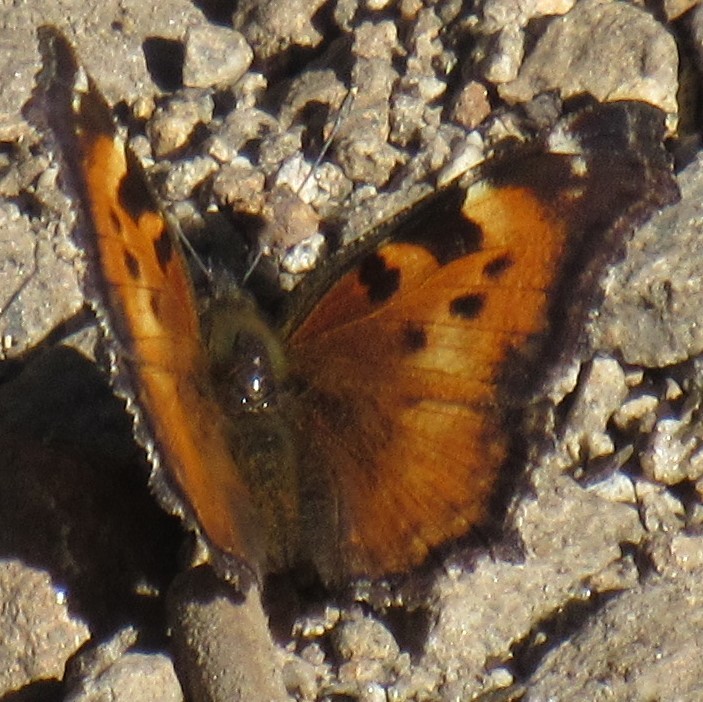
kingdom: Animalia
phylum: Arthropoda
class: Insecta
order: Lepidoptera
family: Nymphalidae
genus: Nymphalis
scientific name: Nymphalis californica
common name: California tortoiseshell
